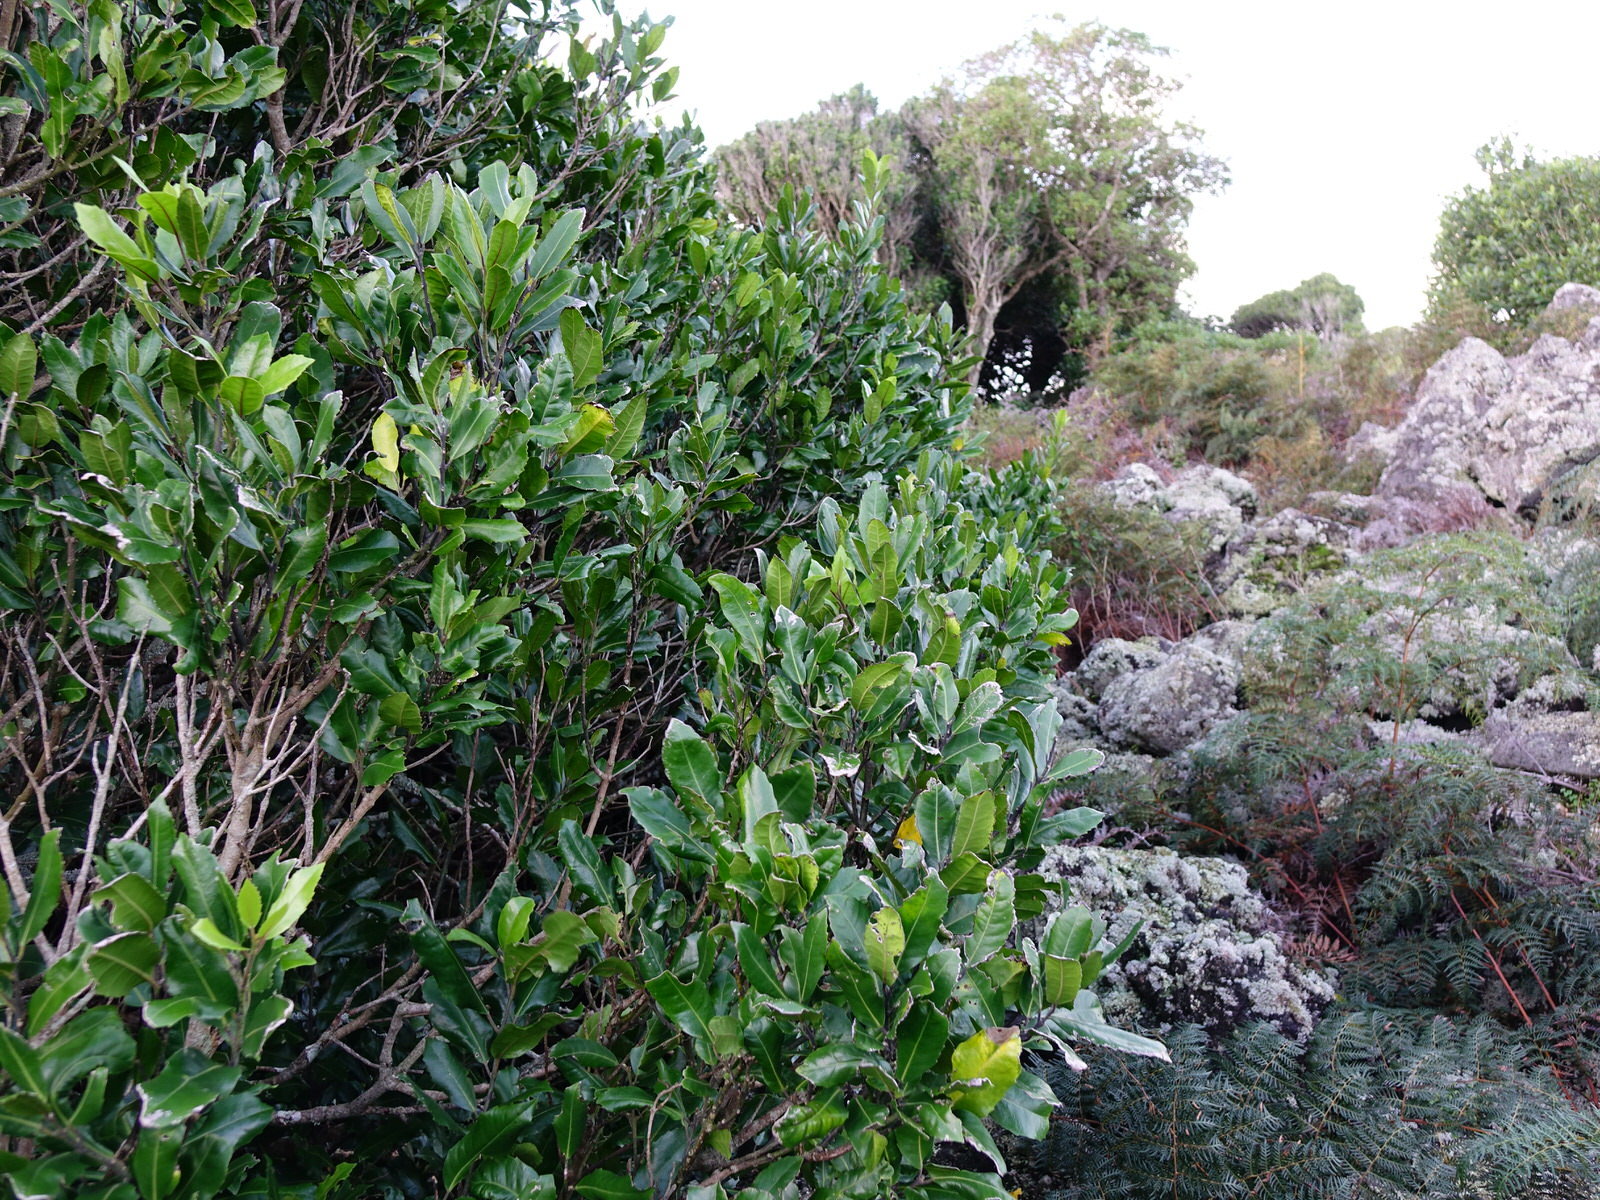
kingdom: Plantae
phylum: Tracheophyta
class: Magnoliopsida
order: Laurales
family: Monimiaceae
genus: Hedycarya
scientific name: Hedycarya arborea
